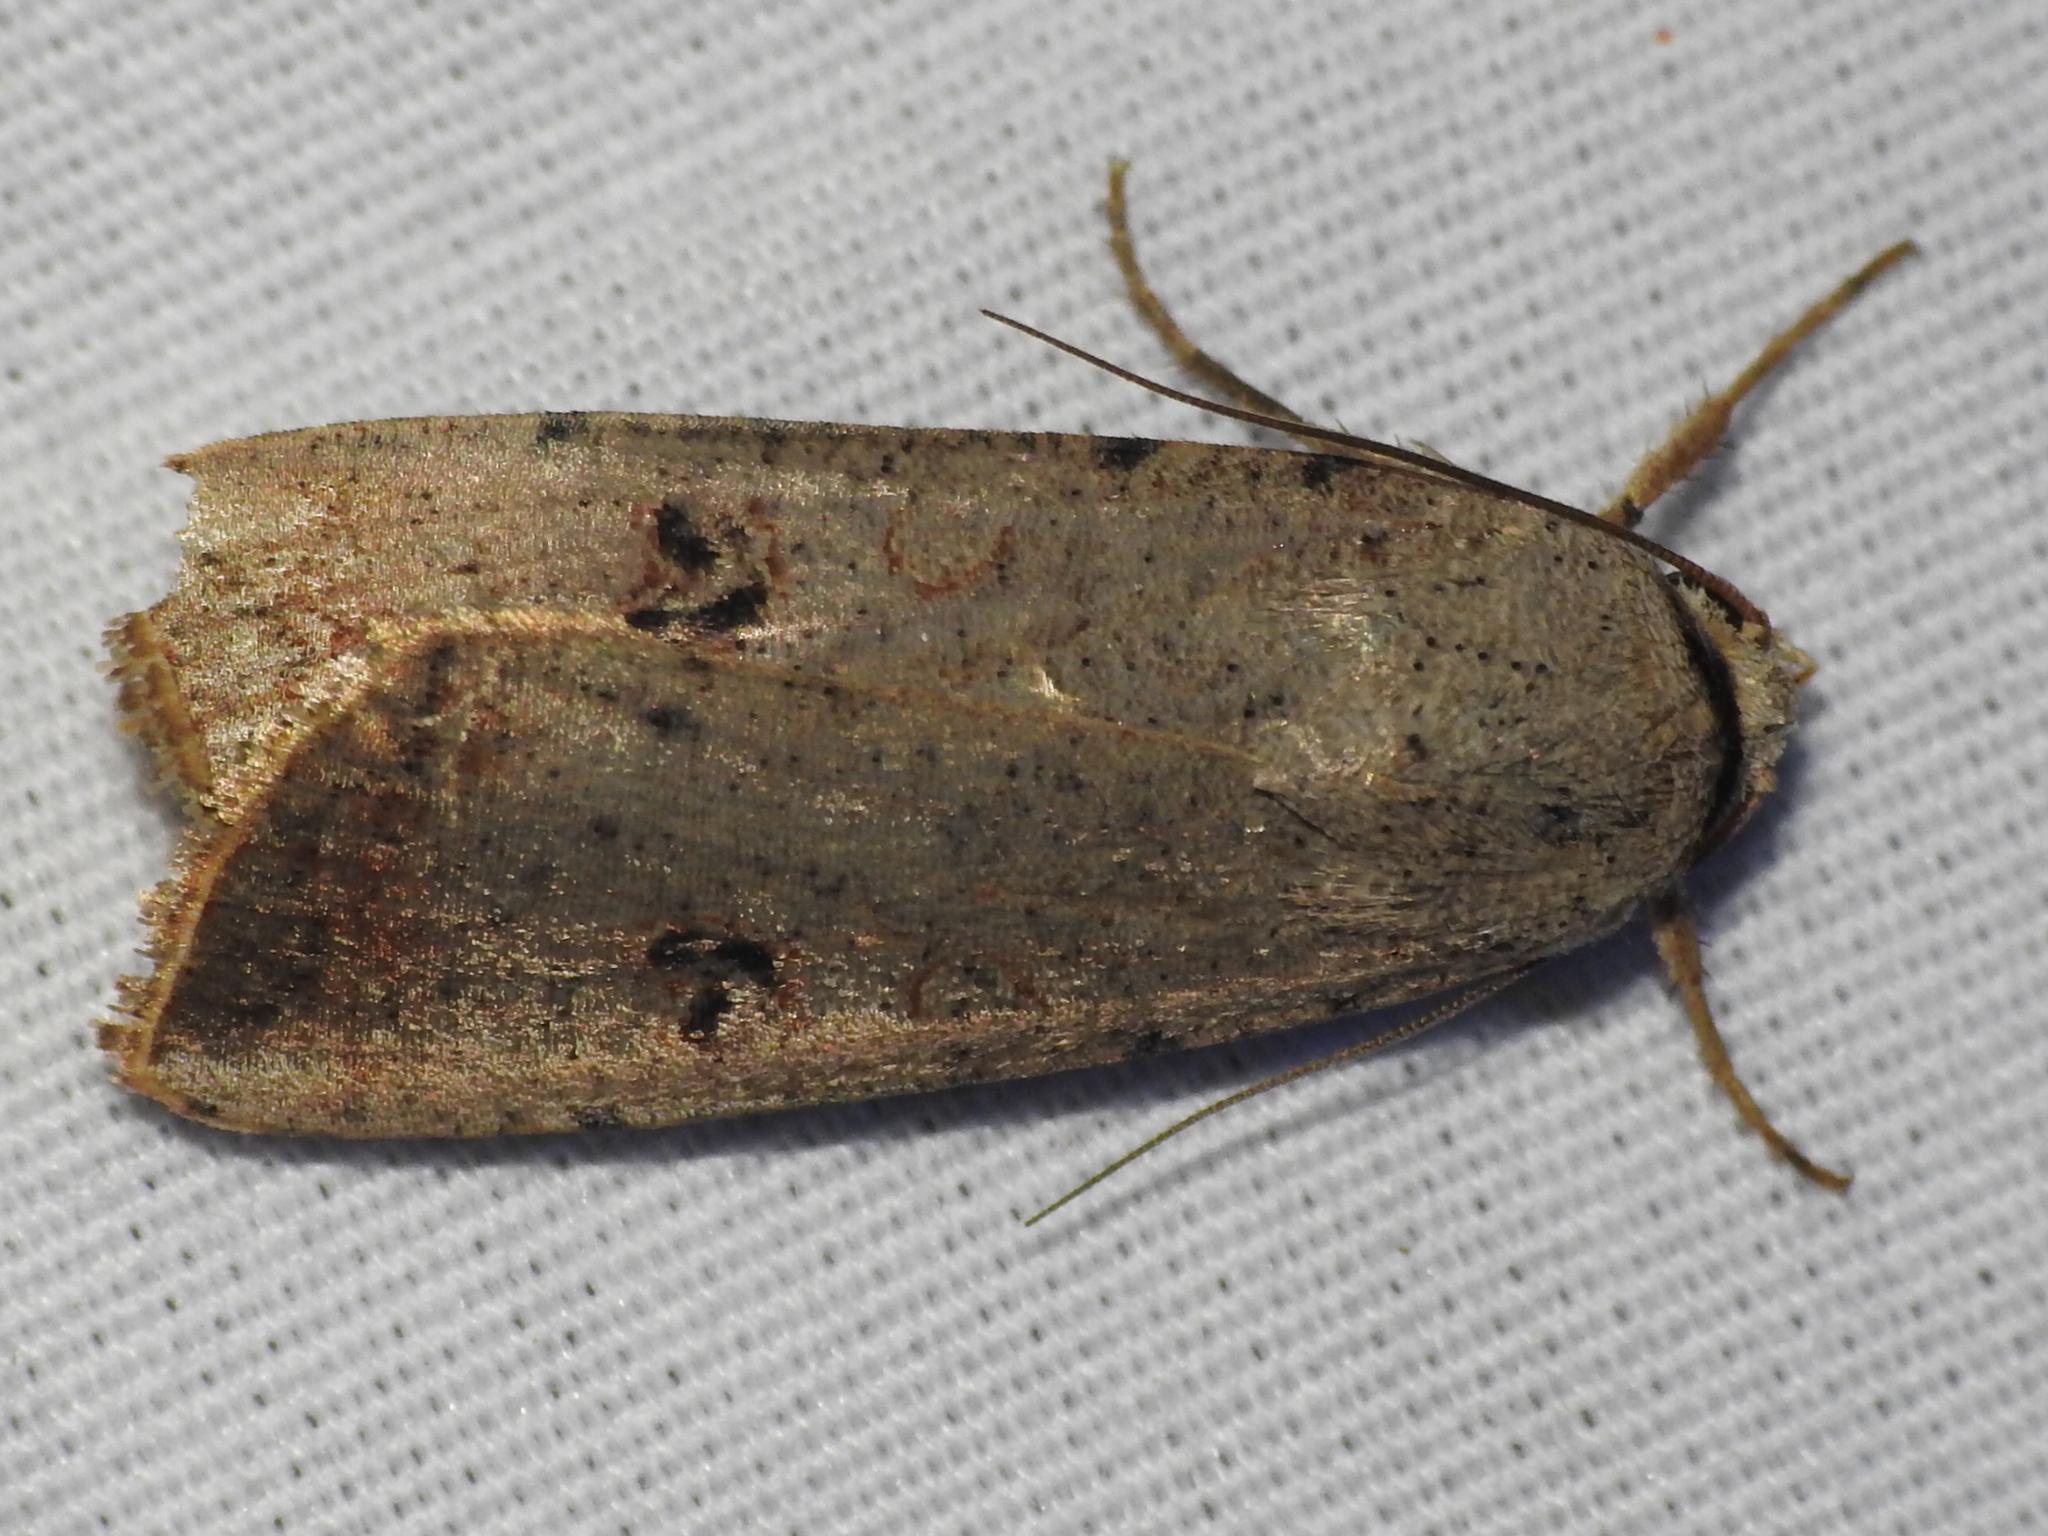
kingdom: Animalia
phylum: Arthropoda
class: Insecta
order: Lepidoptera
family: Noctuidae
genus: Anicla
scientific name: Anicla infecta
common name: Green cutworm
